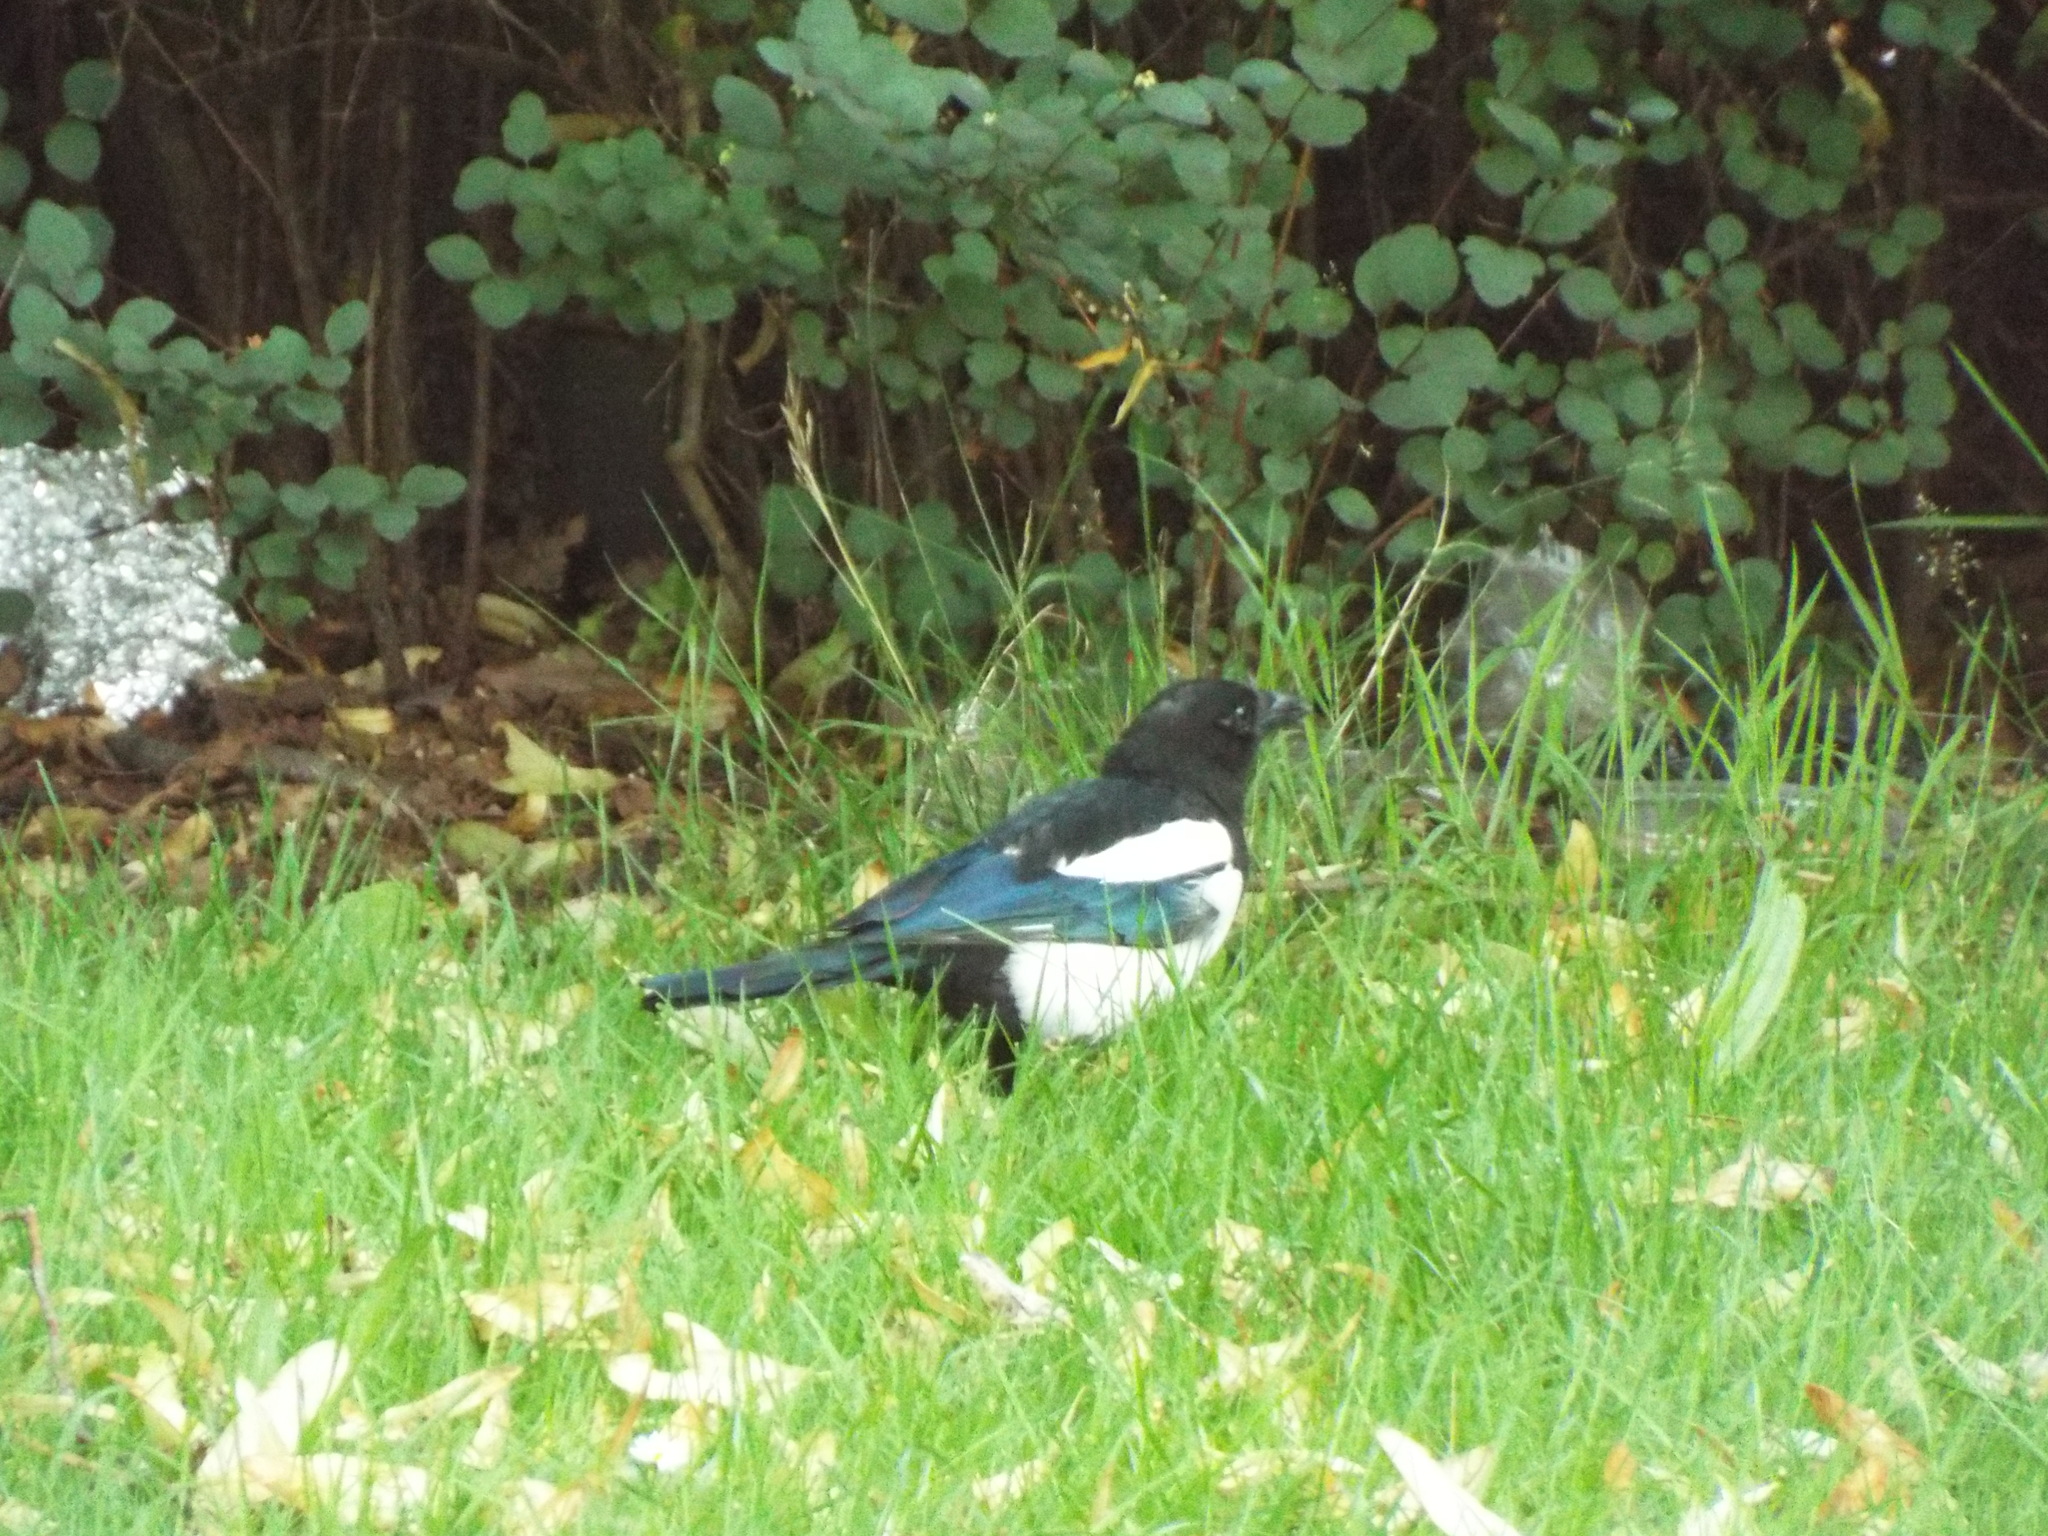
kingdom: Animalia
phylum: Chordata
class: Aves
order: Passeriformes
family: Corvidae
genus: Pica
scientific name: Pica pica
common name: Eurasian magpie
